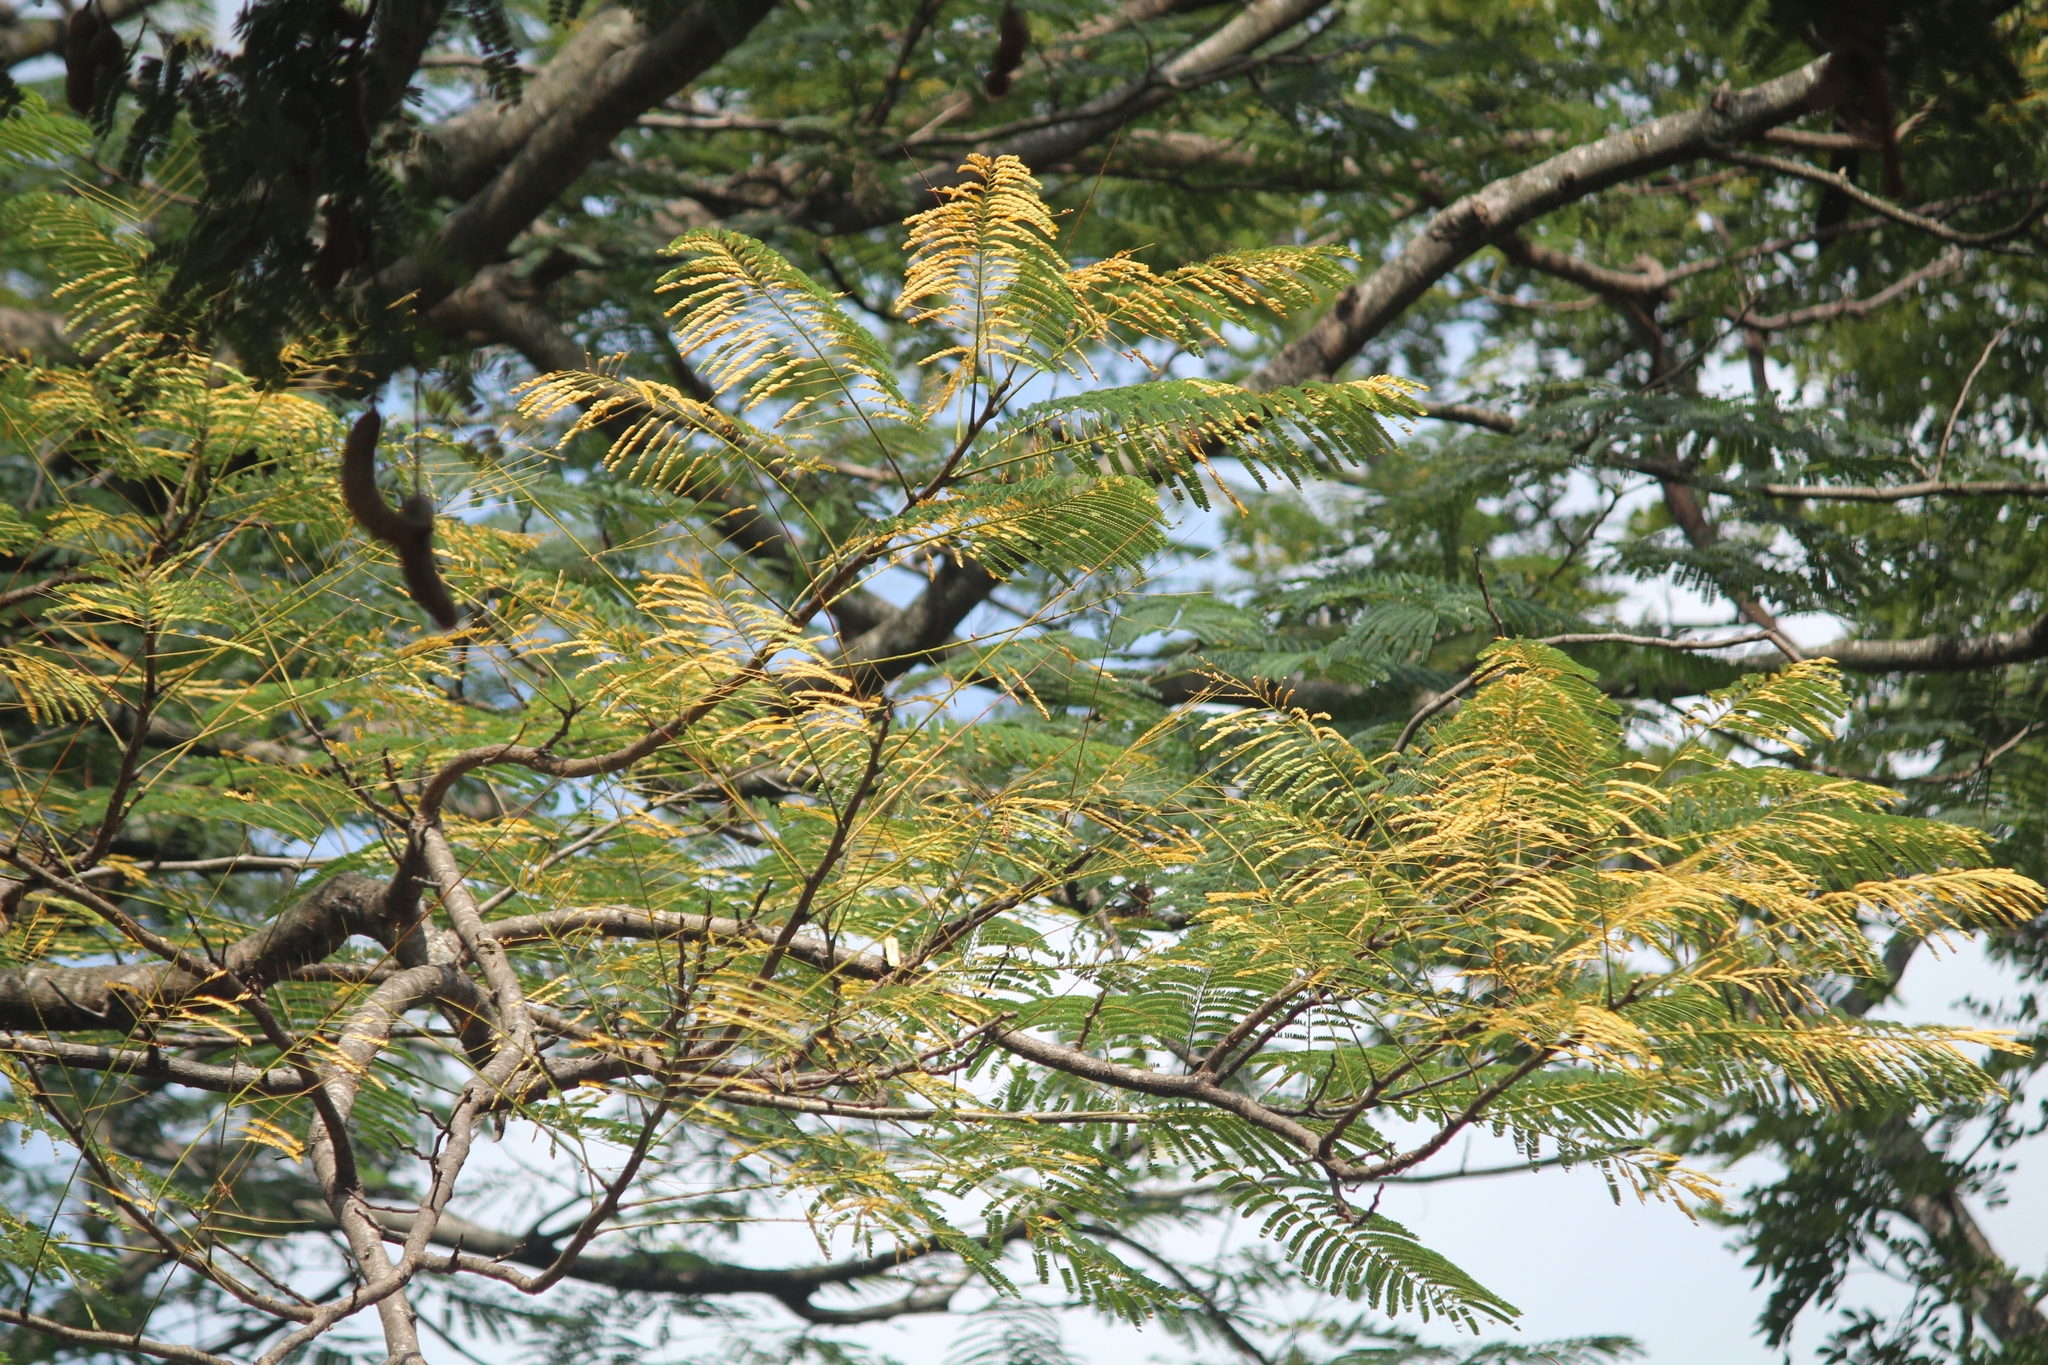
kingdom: Plantae
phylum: Tracheophyta
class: Magnoliopsida
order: Fabales
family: Fabaceae
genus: Delonix
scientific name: Delonix regia
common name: Royal poinciana
